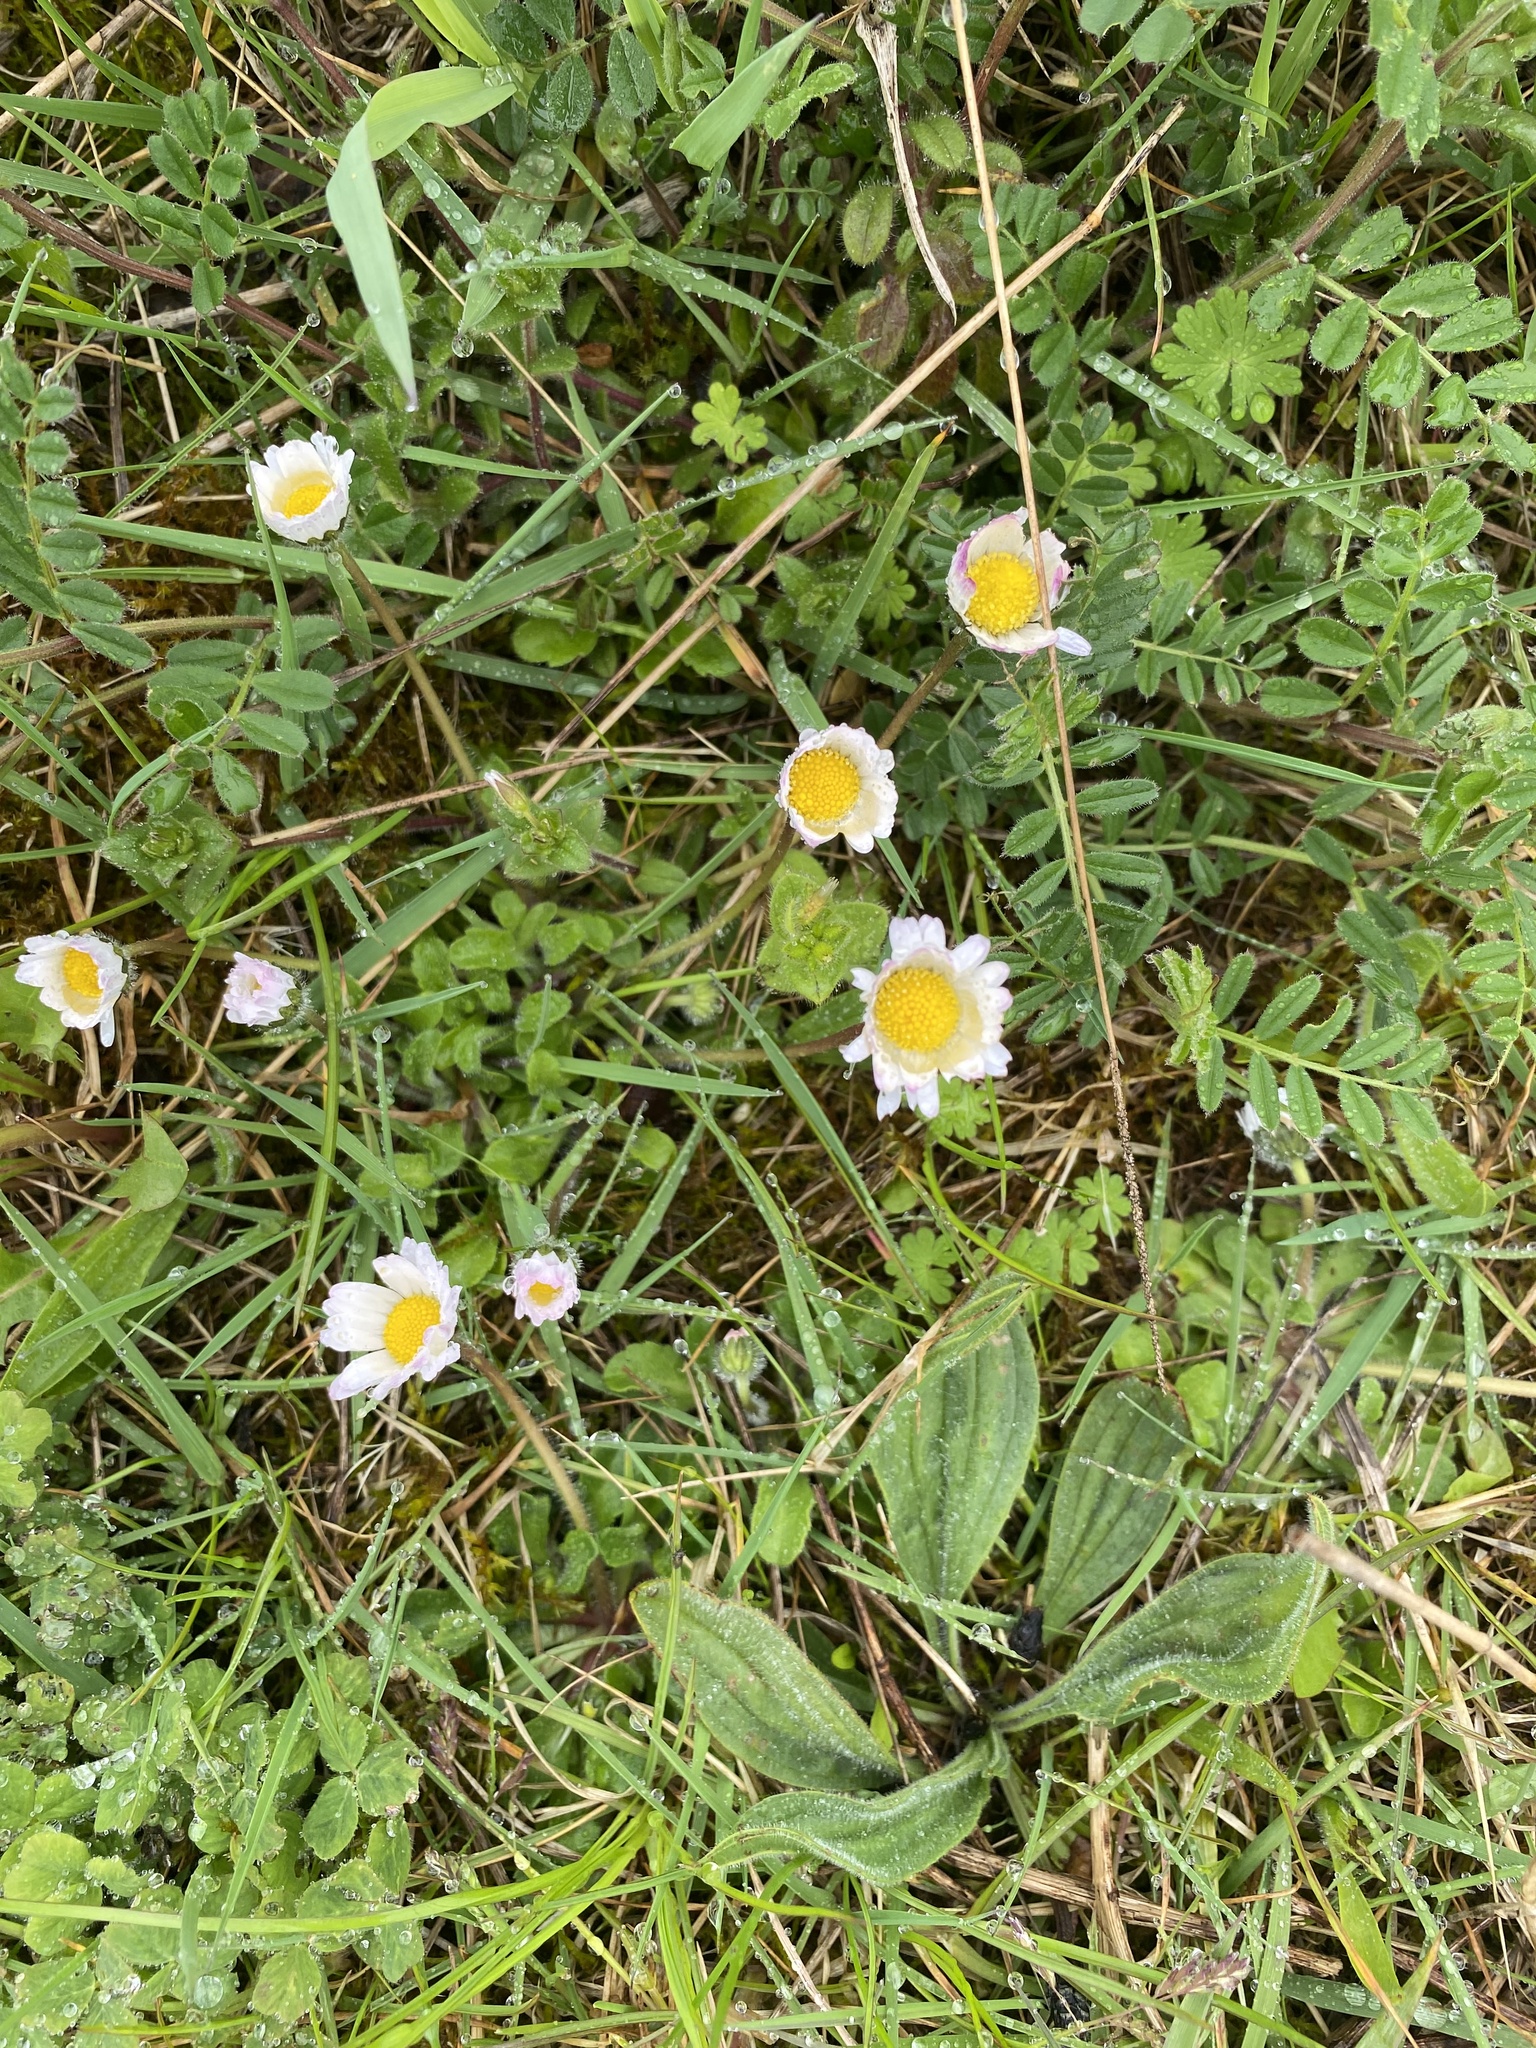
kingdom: Plantae
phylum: Tracheophyta
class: Magnoliopsida
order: Asterales
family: Asteraceae
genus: Bellis
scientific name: Bellis perennis
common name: Lawndaisy
